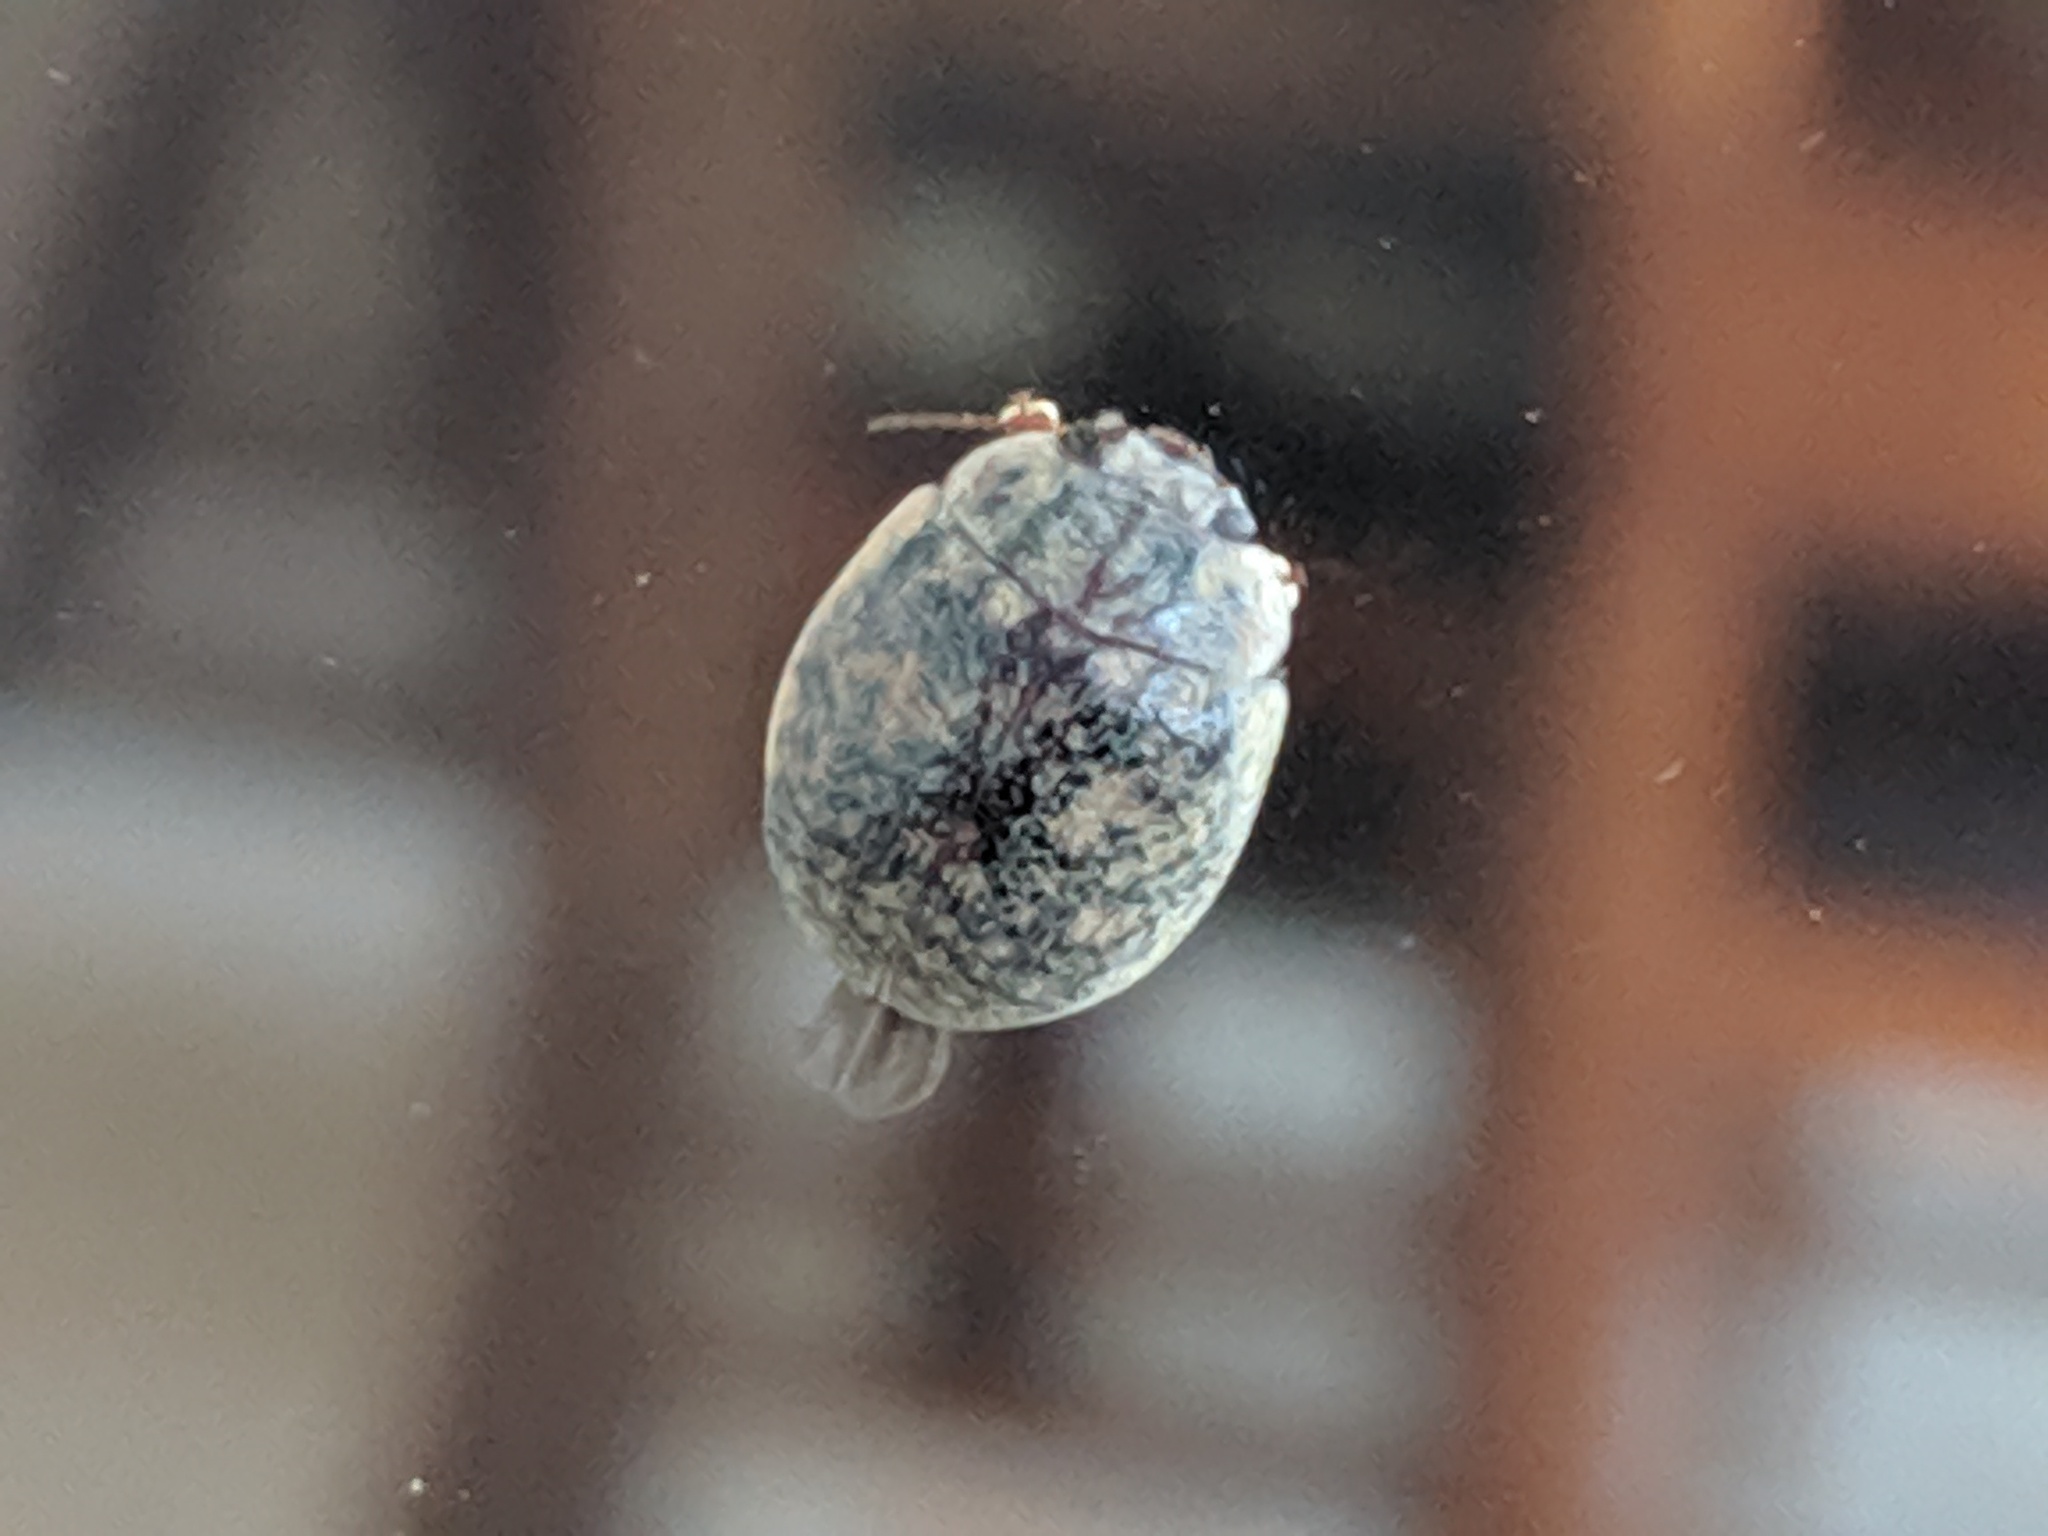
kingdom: Animalia
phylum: Arthropoda
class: Insecta
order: Coleoptera
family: Chrysomelidae
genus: Trachymela
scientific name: Trachymela sloanei
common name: Australian tortoise beetle
